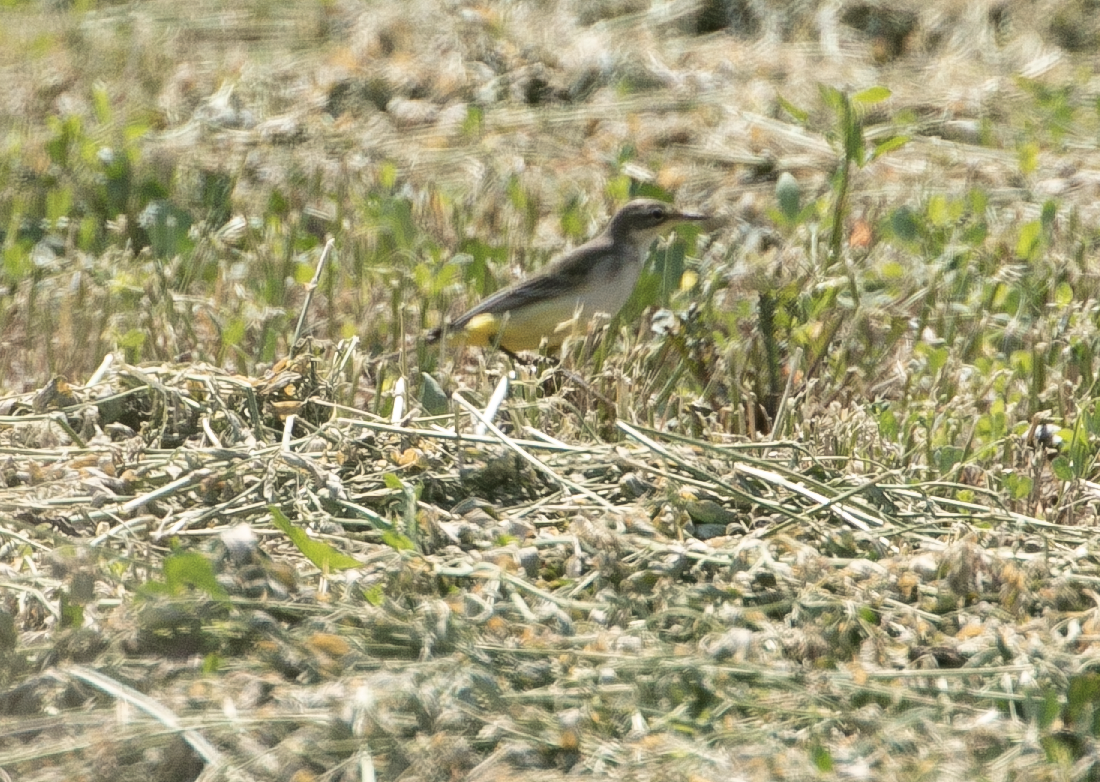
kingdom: Animalia
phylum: Chordata
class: Aves
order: Passeriformes
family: Motacillidae
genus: Motacilla
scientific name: Motacilla flava
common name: Western yellow wagtail
